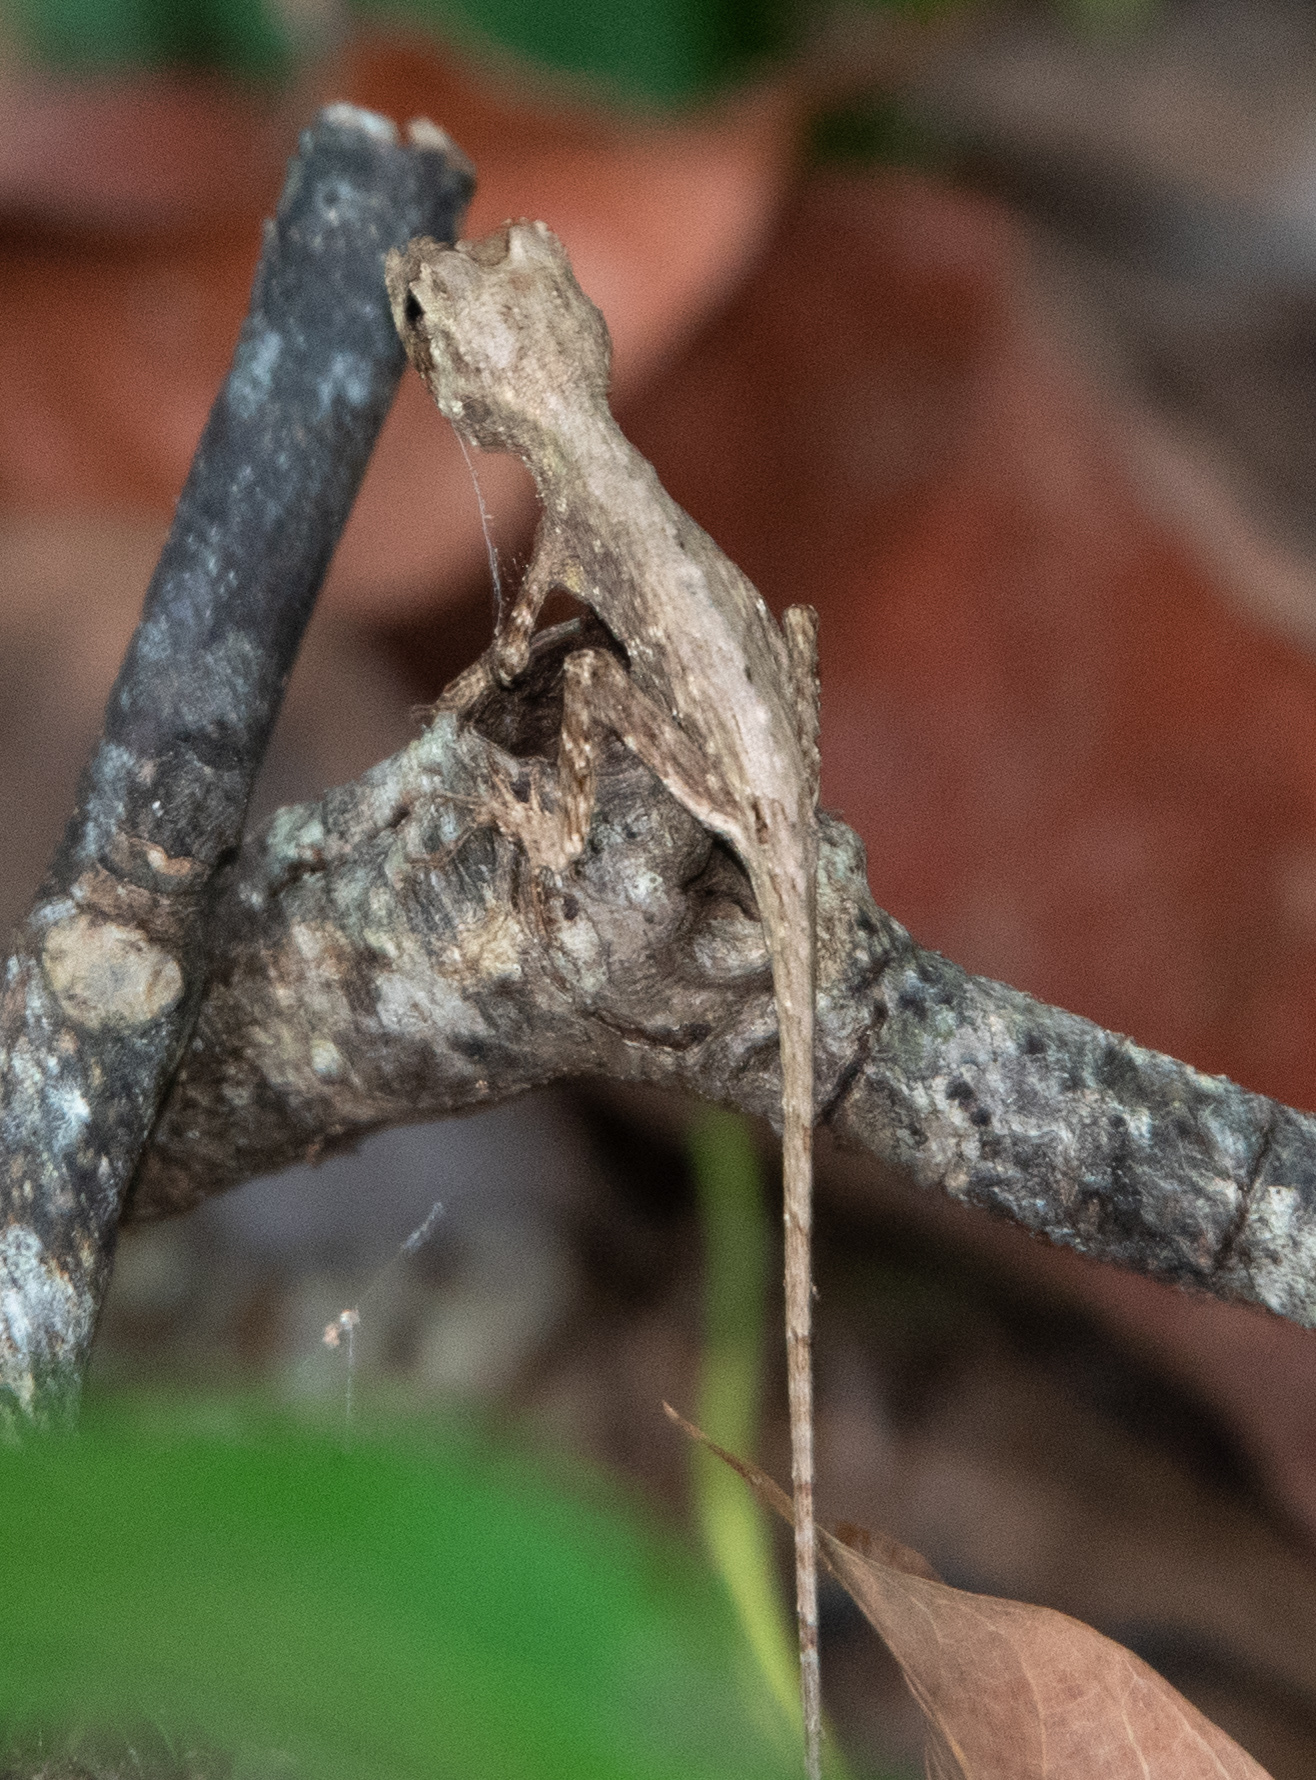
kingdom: Animalia
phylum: Chordata
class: Squamata
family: Dactyloidae
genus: Anolis
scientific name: Anolis capito
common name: Bighead anole
